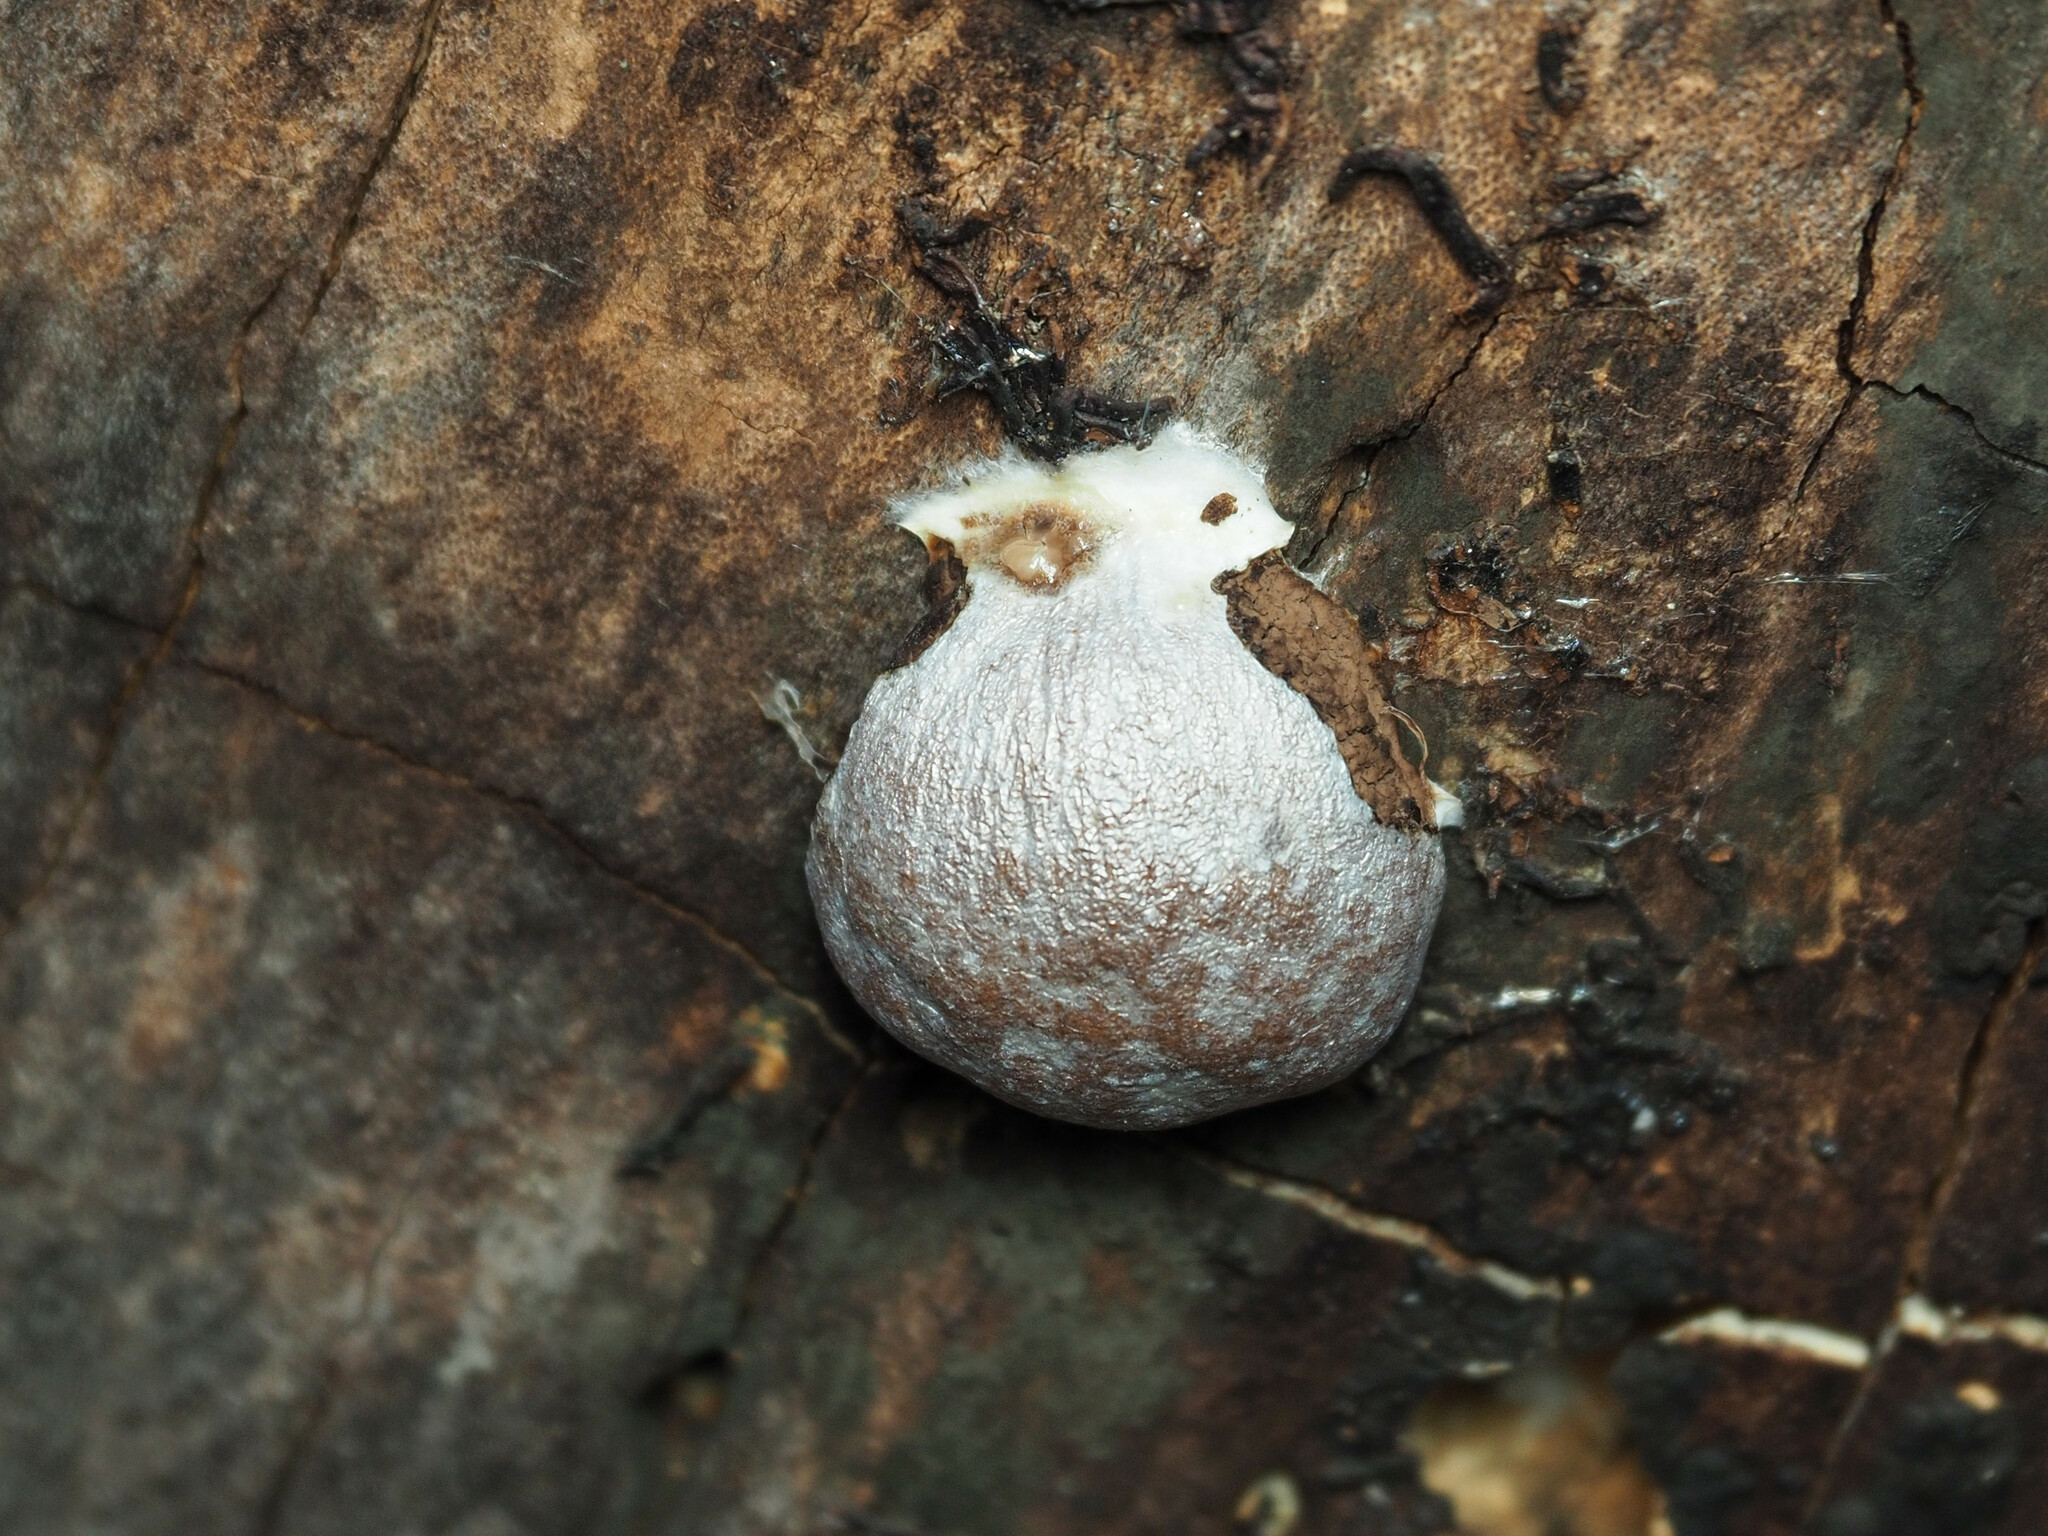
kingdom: Protozoa
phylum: Mycetozoa
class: Myxomycetes
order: Cribrariales
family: Tubiferaceae
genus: Reticularia
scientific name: Reticularia lycoperdon
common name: False puffball
